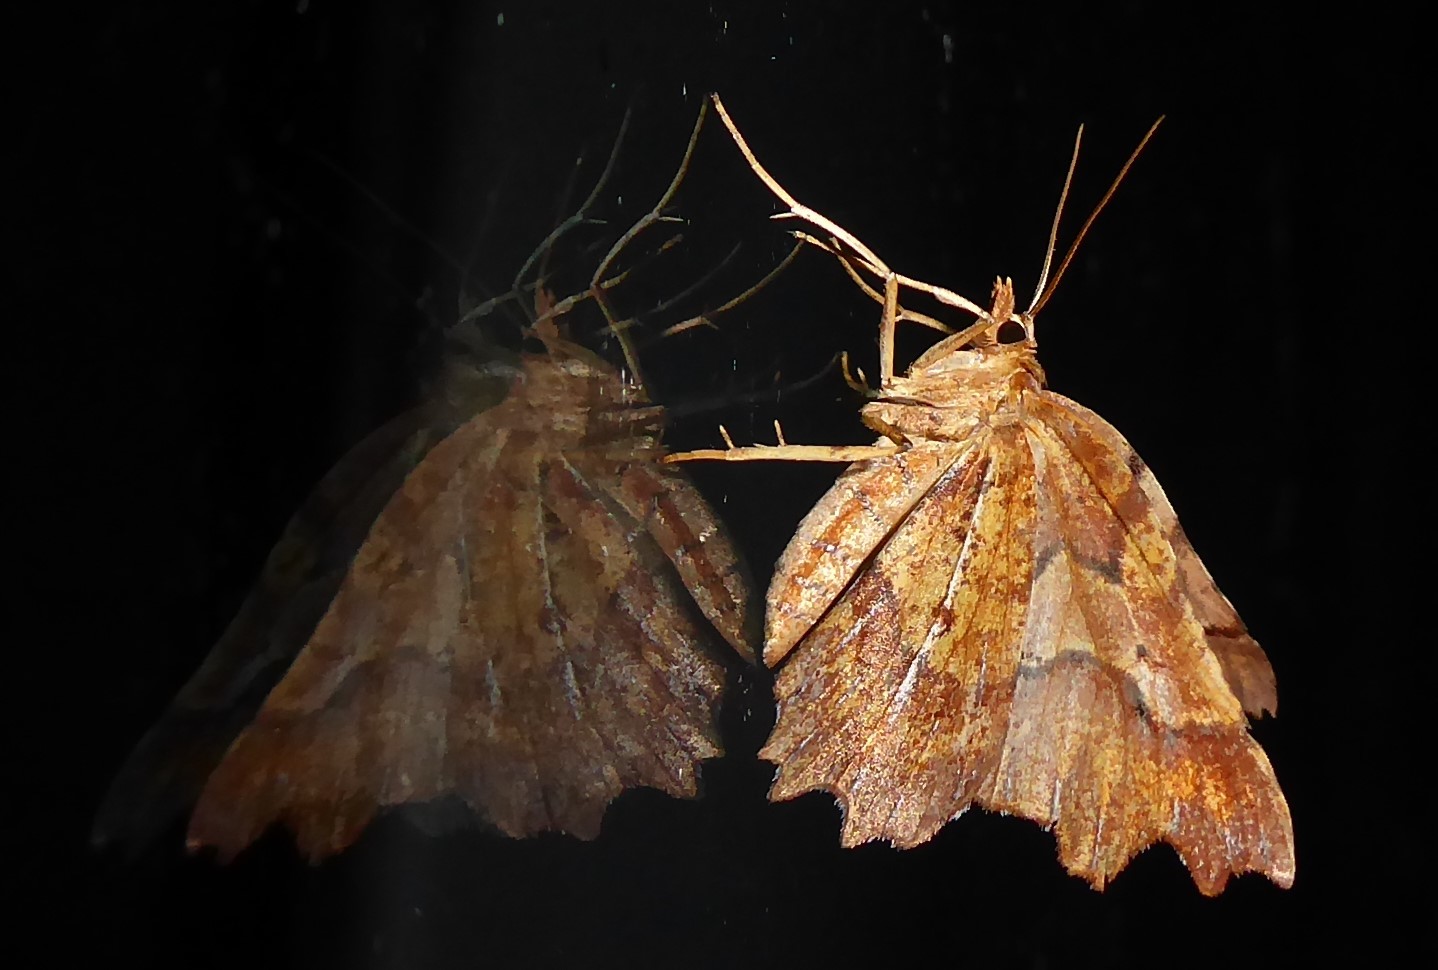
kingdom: Animalia
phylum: Arthropoda
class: Insecta
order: Lepidoptera
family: Geometridae
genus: Ischalis
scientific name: Ischalis fortinata
